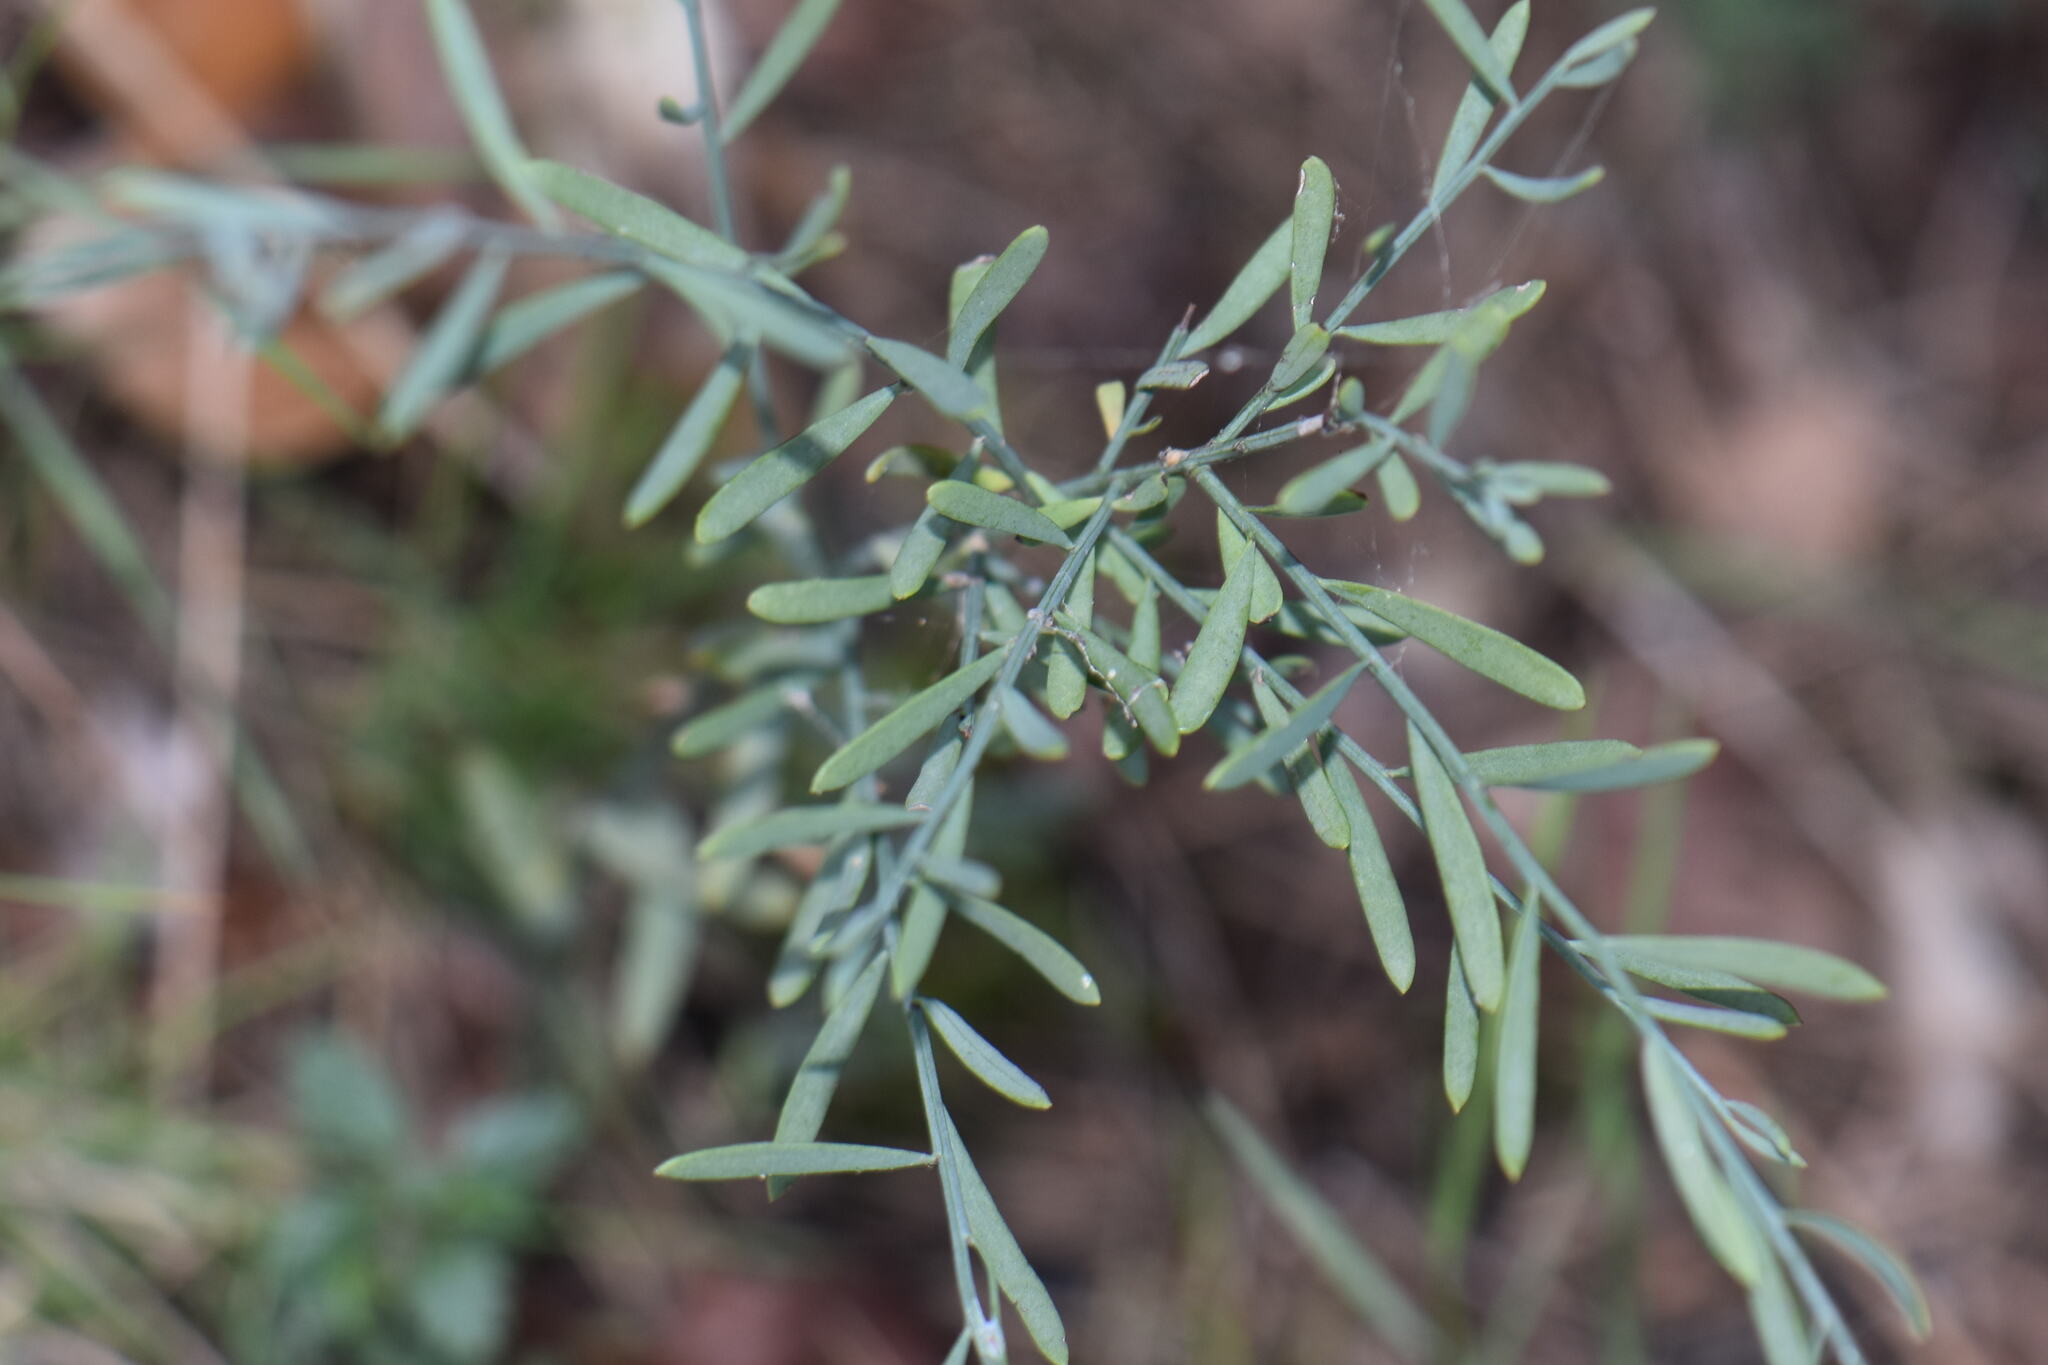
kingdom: Plantae
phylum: Tracheophyta
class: Magnoliopsida
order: Santalales
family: Santalaceae
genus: Osyris
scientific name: Osyris alba
